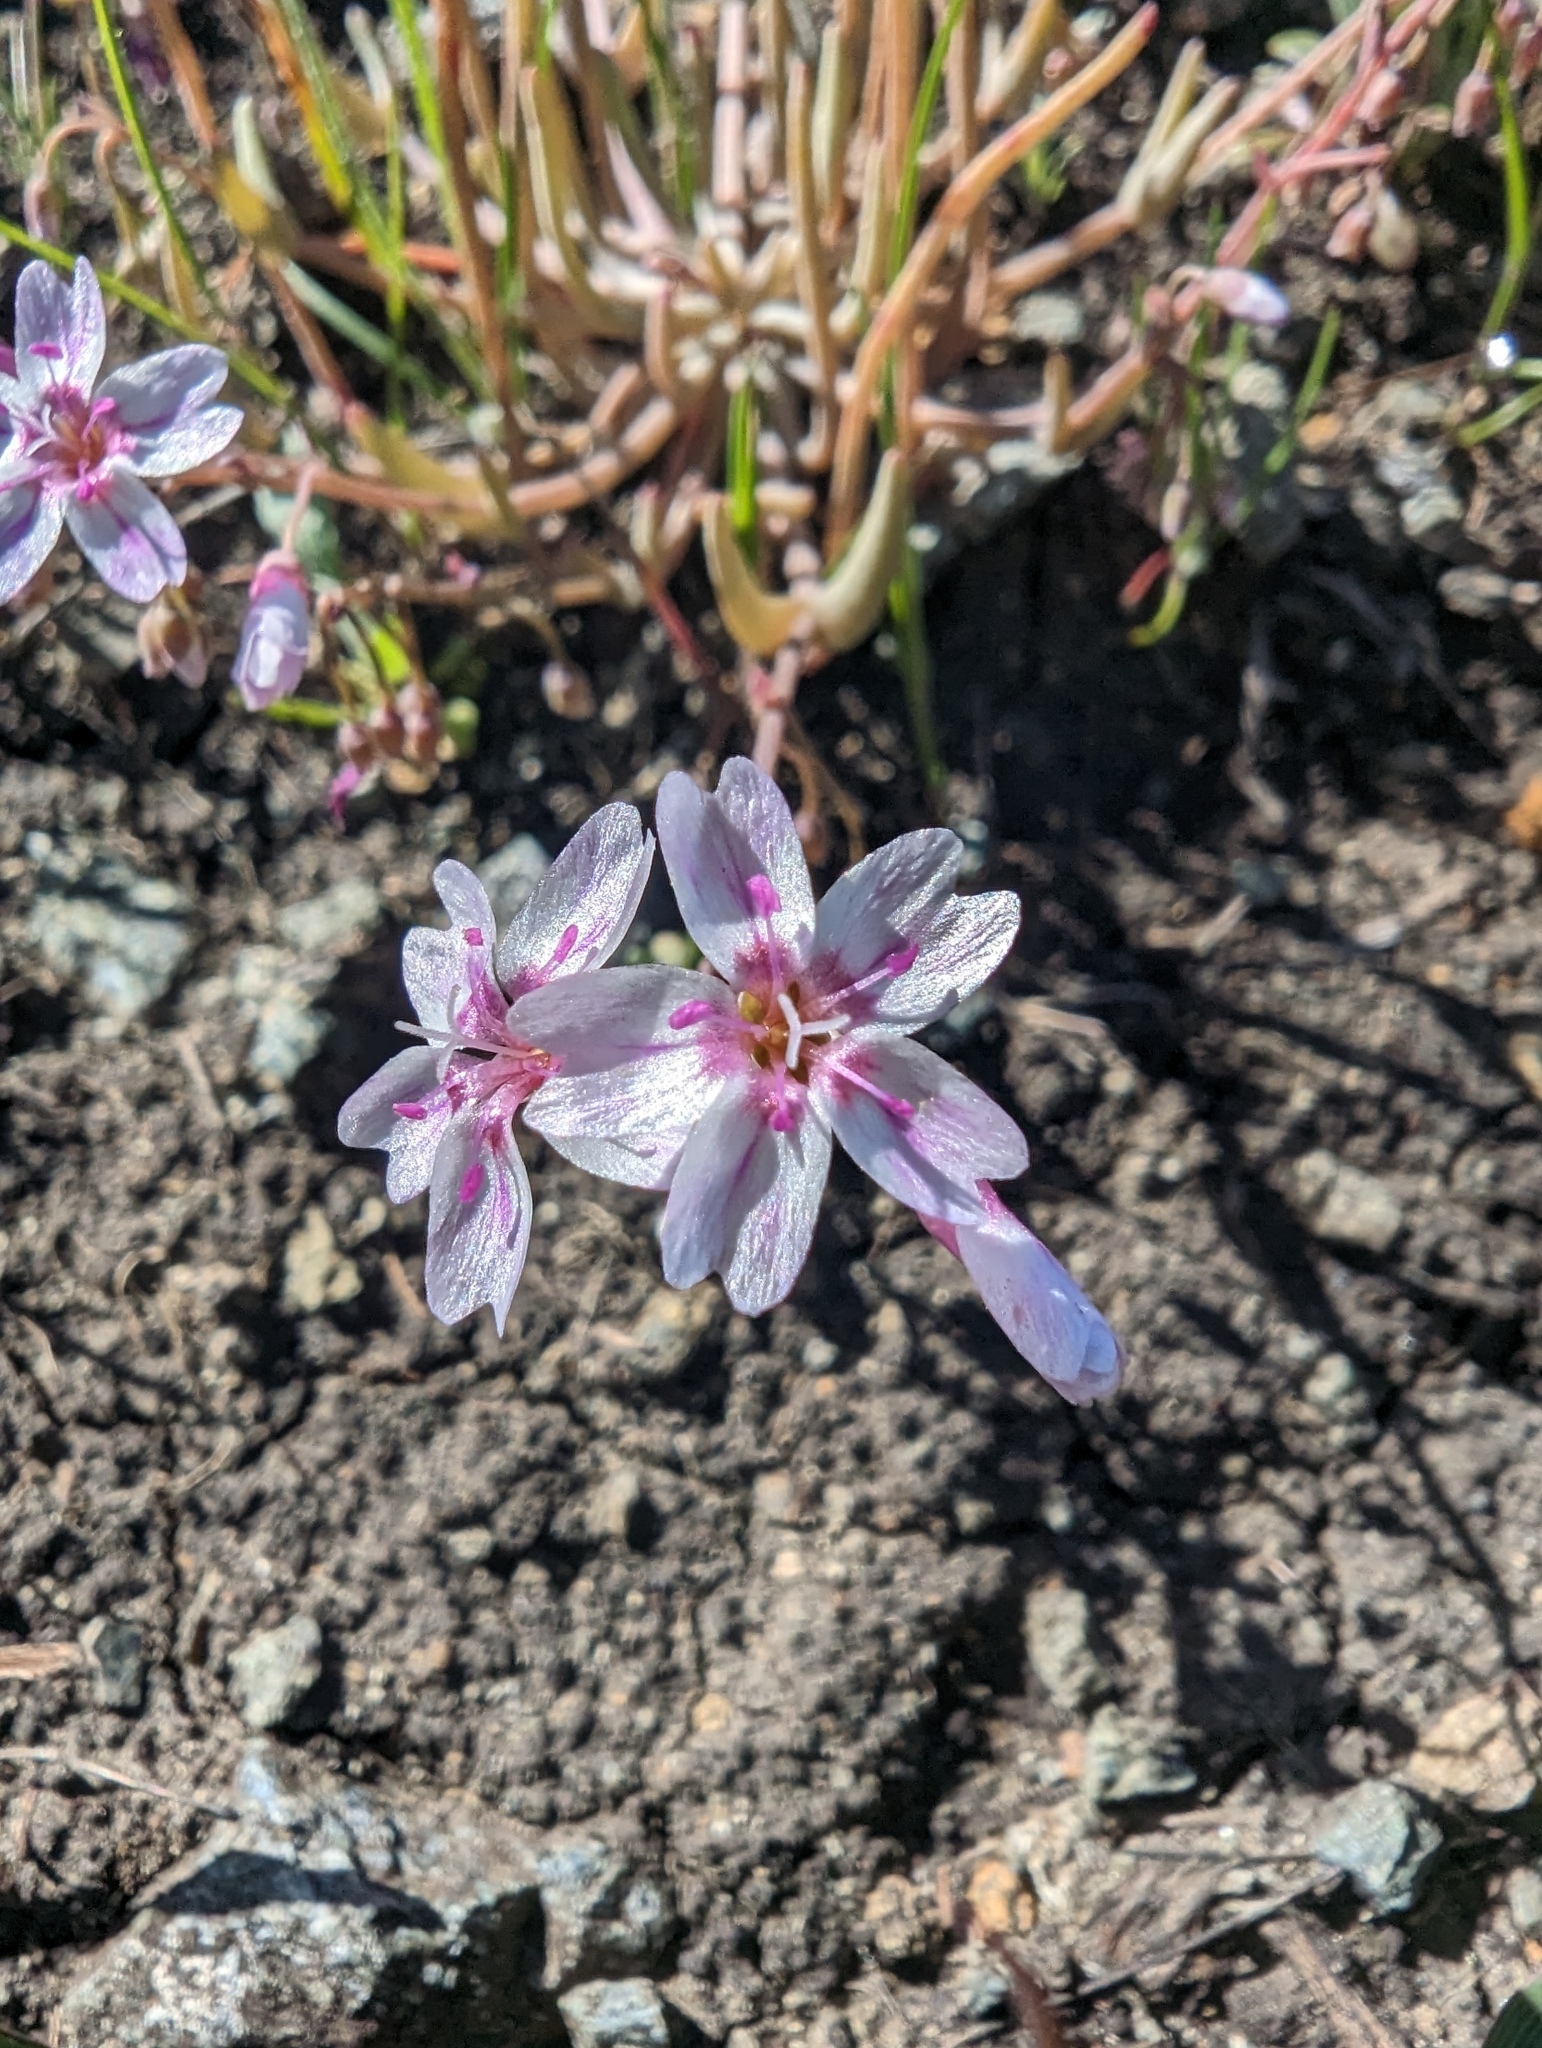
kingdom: Plantae
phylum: Tracheophyta
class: Magnoliopsida
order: Caryophyllales
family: Montiaceae
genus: Claytonia
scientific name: Claytonia gypsophiloides
